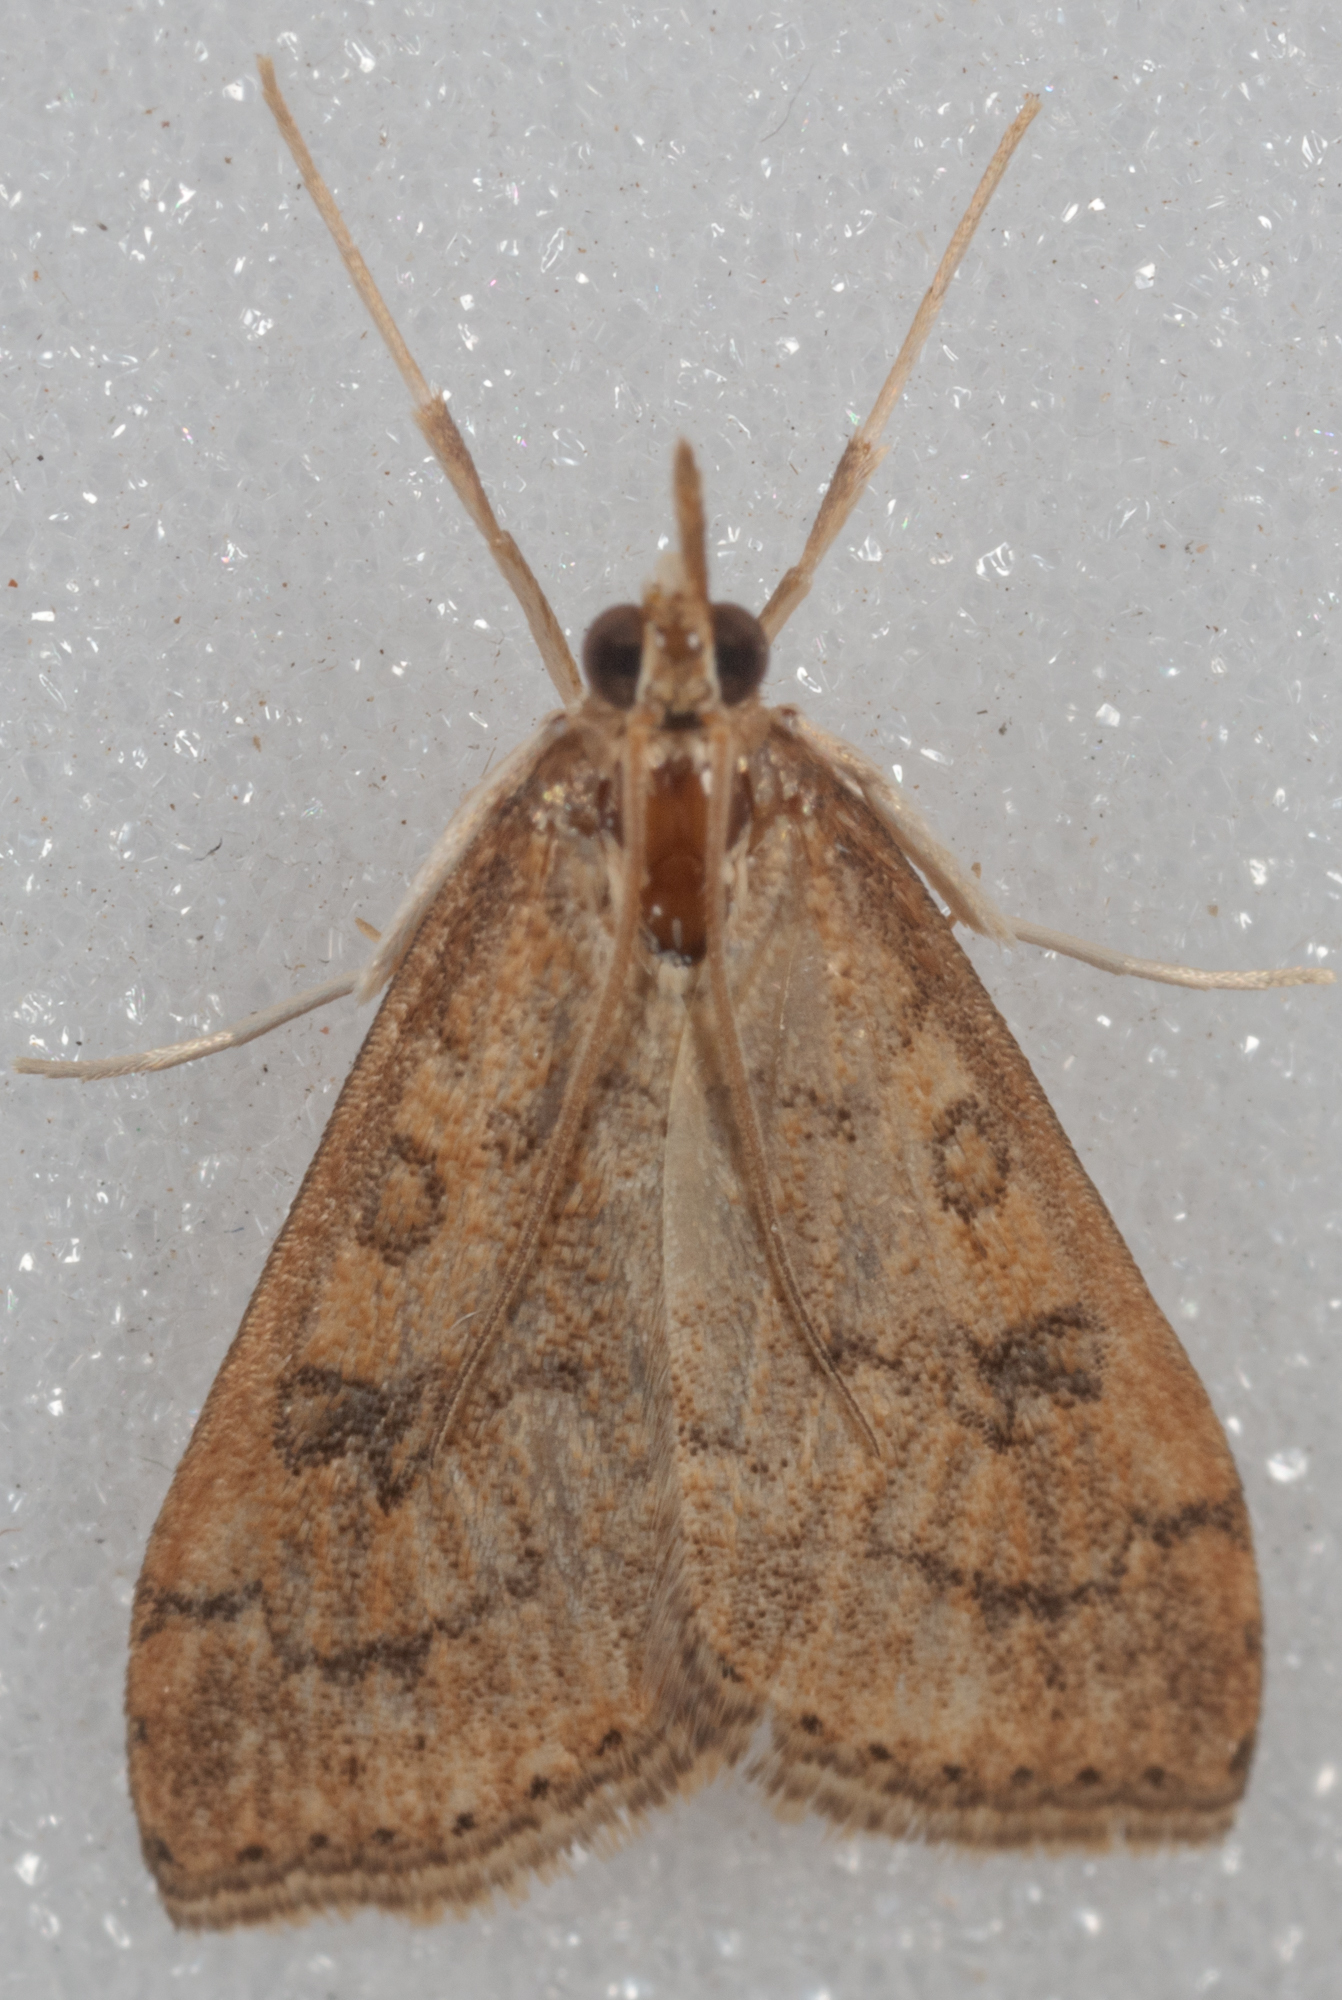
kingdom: Animalia
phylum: Arthropoda
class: Insecta
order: Lepidoptera
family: Crambidae
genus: Udea
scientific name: Udea rubigalis
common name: Celery leaftier moth
